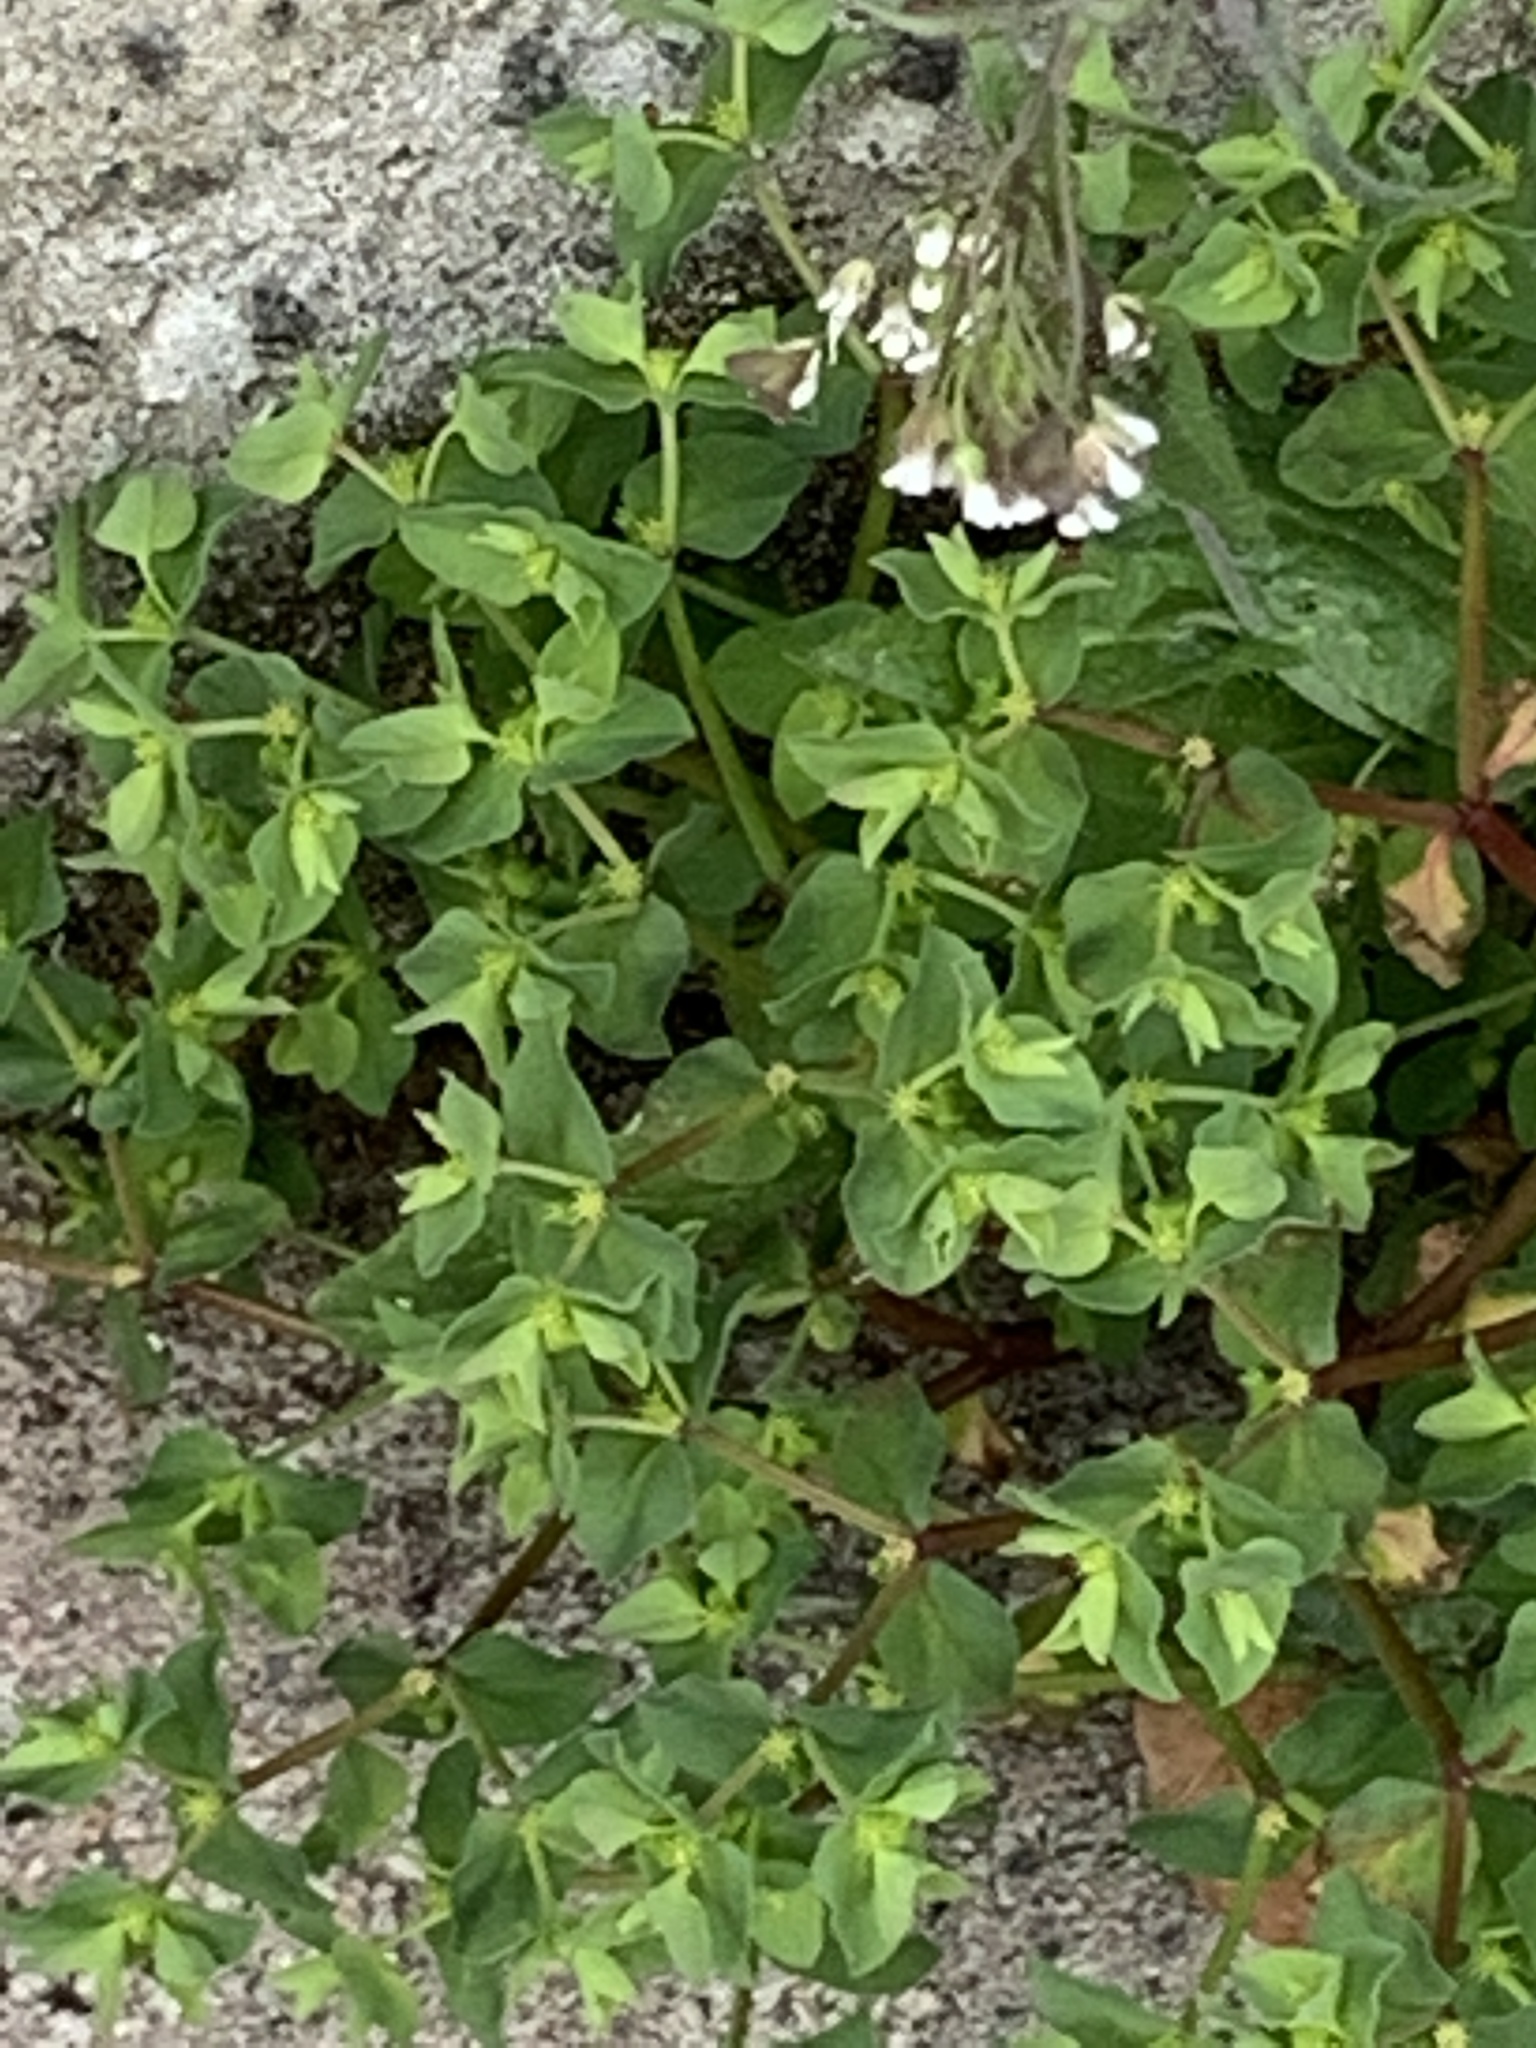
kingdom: Plantae
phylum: Tracheophyta
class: Magnoliopsida
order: Malpighiales
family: Euphorbiaceae
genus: Euphorbia
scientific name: Euphorbia peplus
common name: Petty spurge
